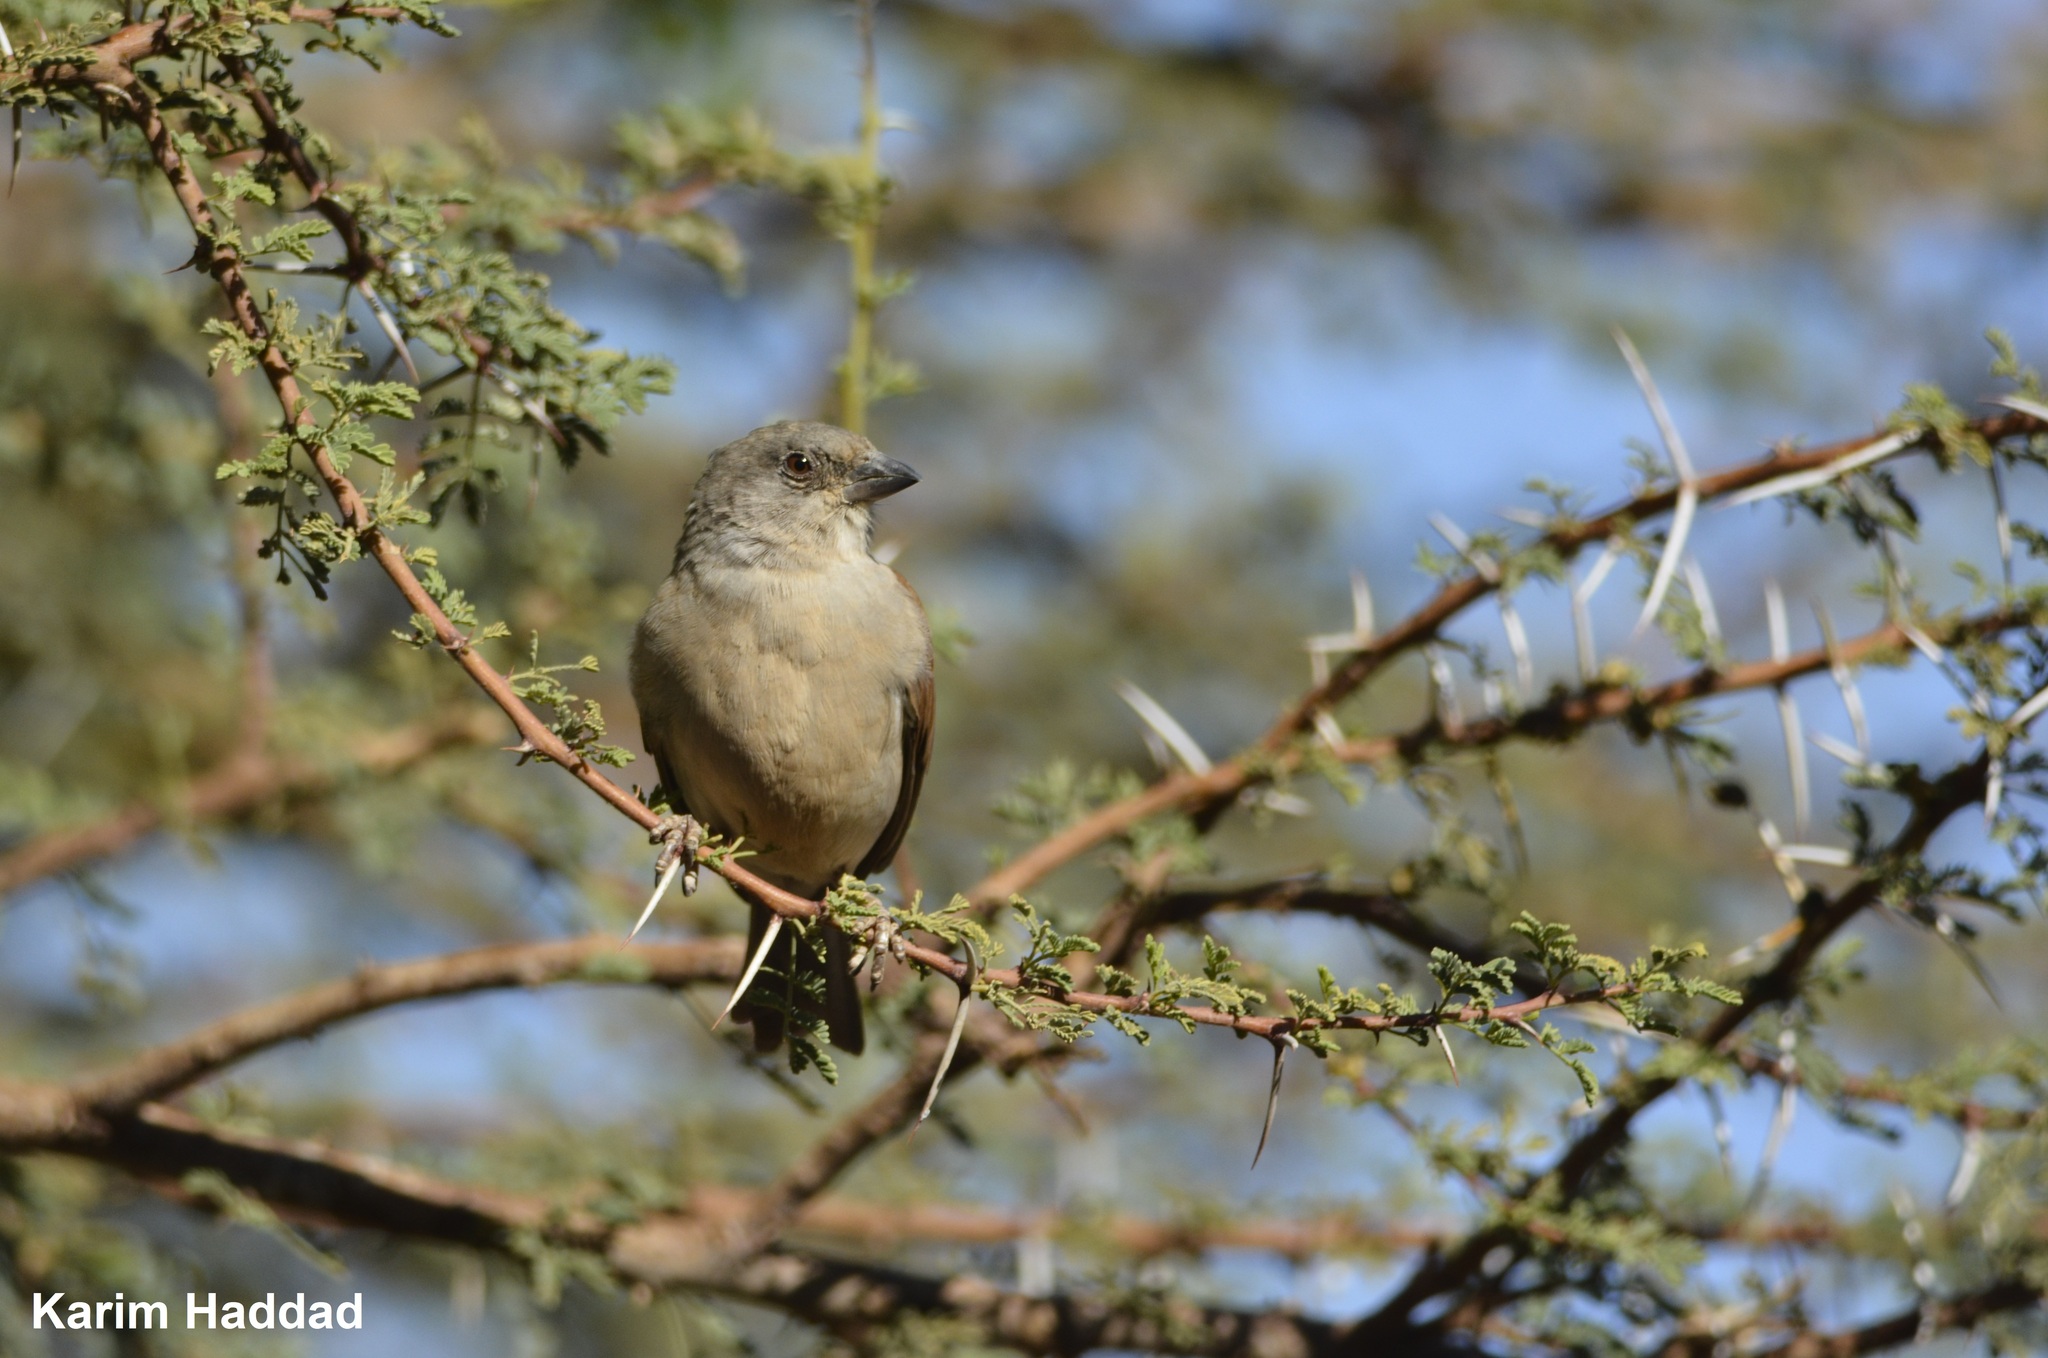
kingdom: Animalia
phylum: Chordata
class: Aves
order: Passeriformes
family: Passeridae
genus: Passer
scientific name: Passer griseus
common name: Northern grey-headed sparrow
